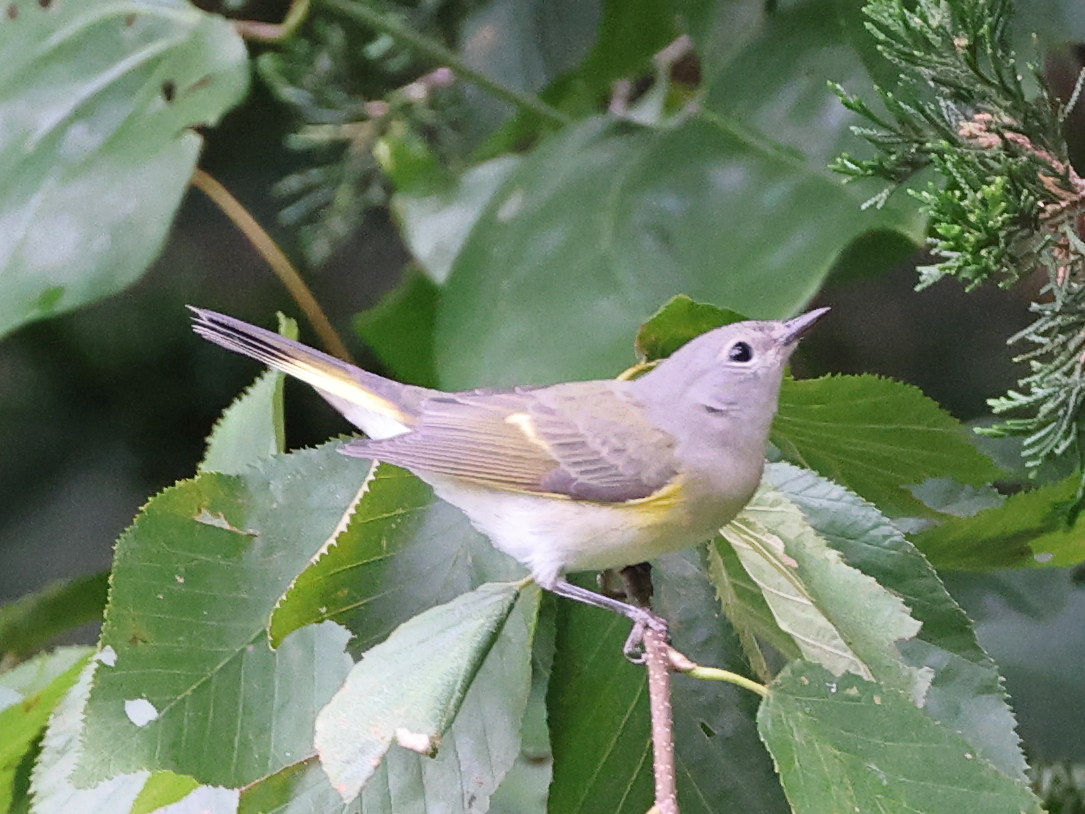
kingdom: Animalia
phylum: Chordata
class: Aves
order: Passeriformes
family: Parulidae
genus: Setophaga
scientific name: Setophaga ruticilla
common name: American redstart
